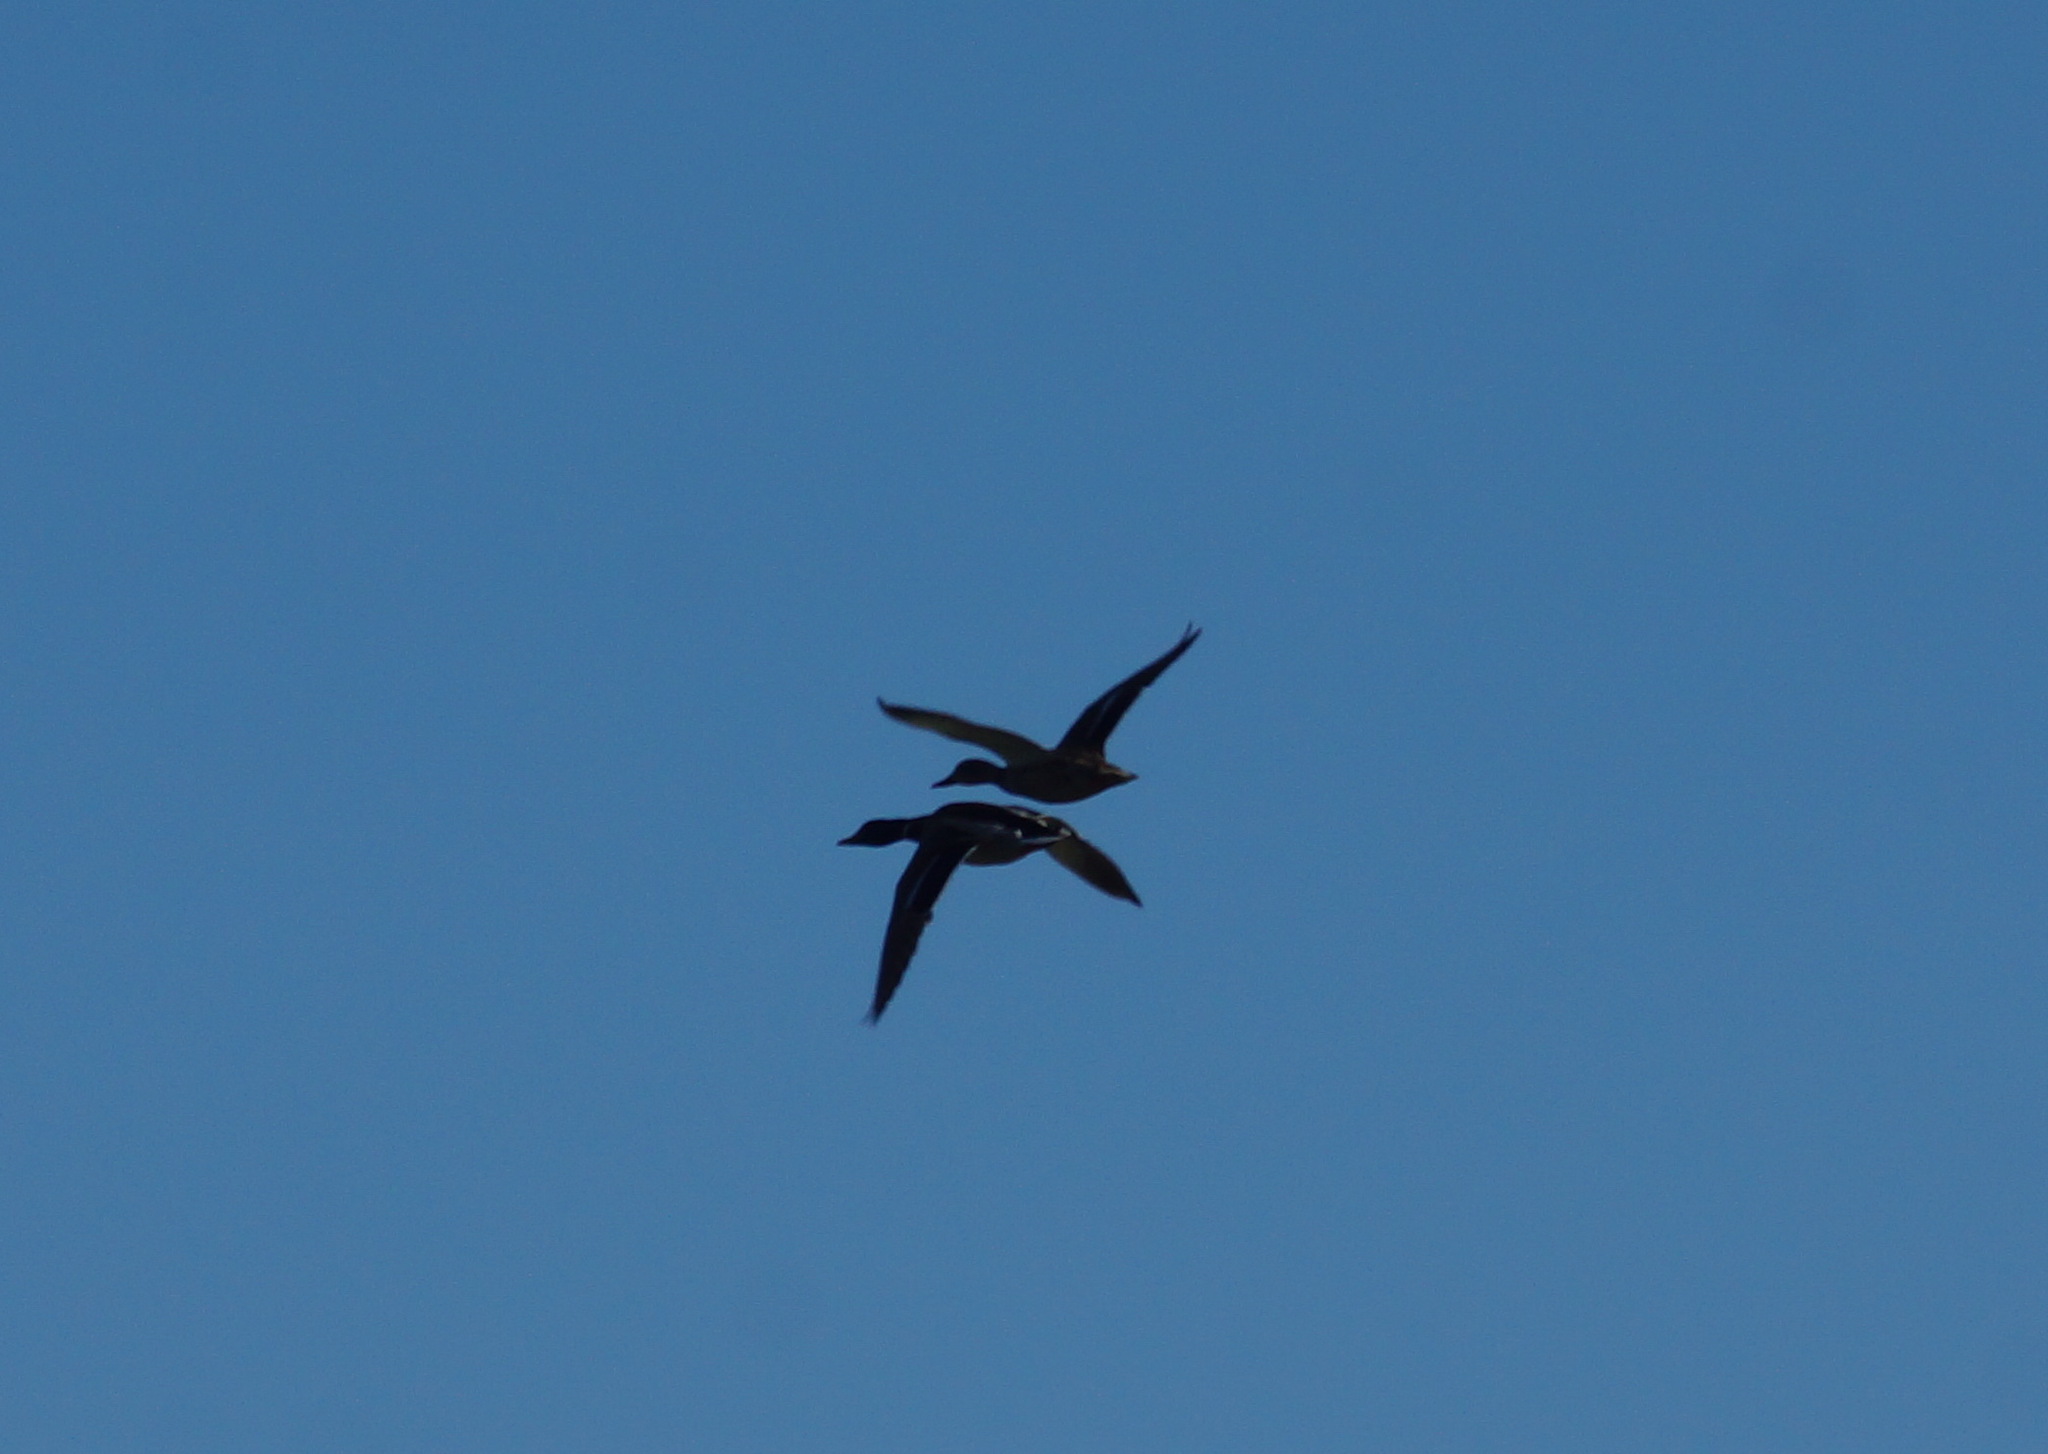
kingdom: Animalia
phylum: Chordata
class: Aves
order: Anseriformes
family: Anatidae
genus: Anas
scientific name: Anas platyrhynchos
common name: Mallard
